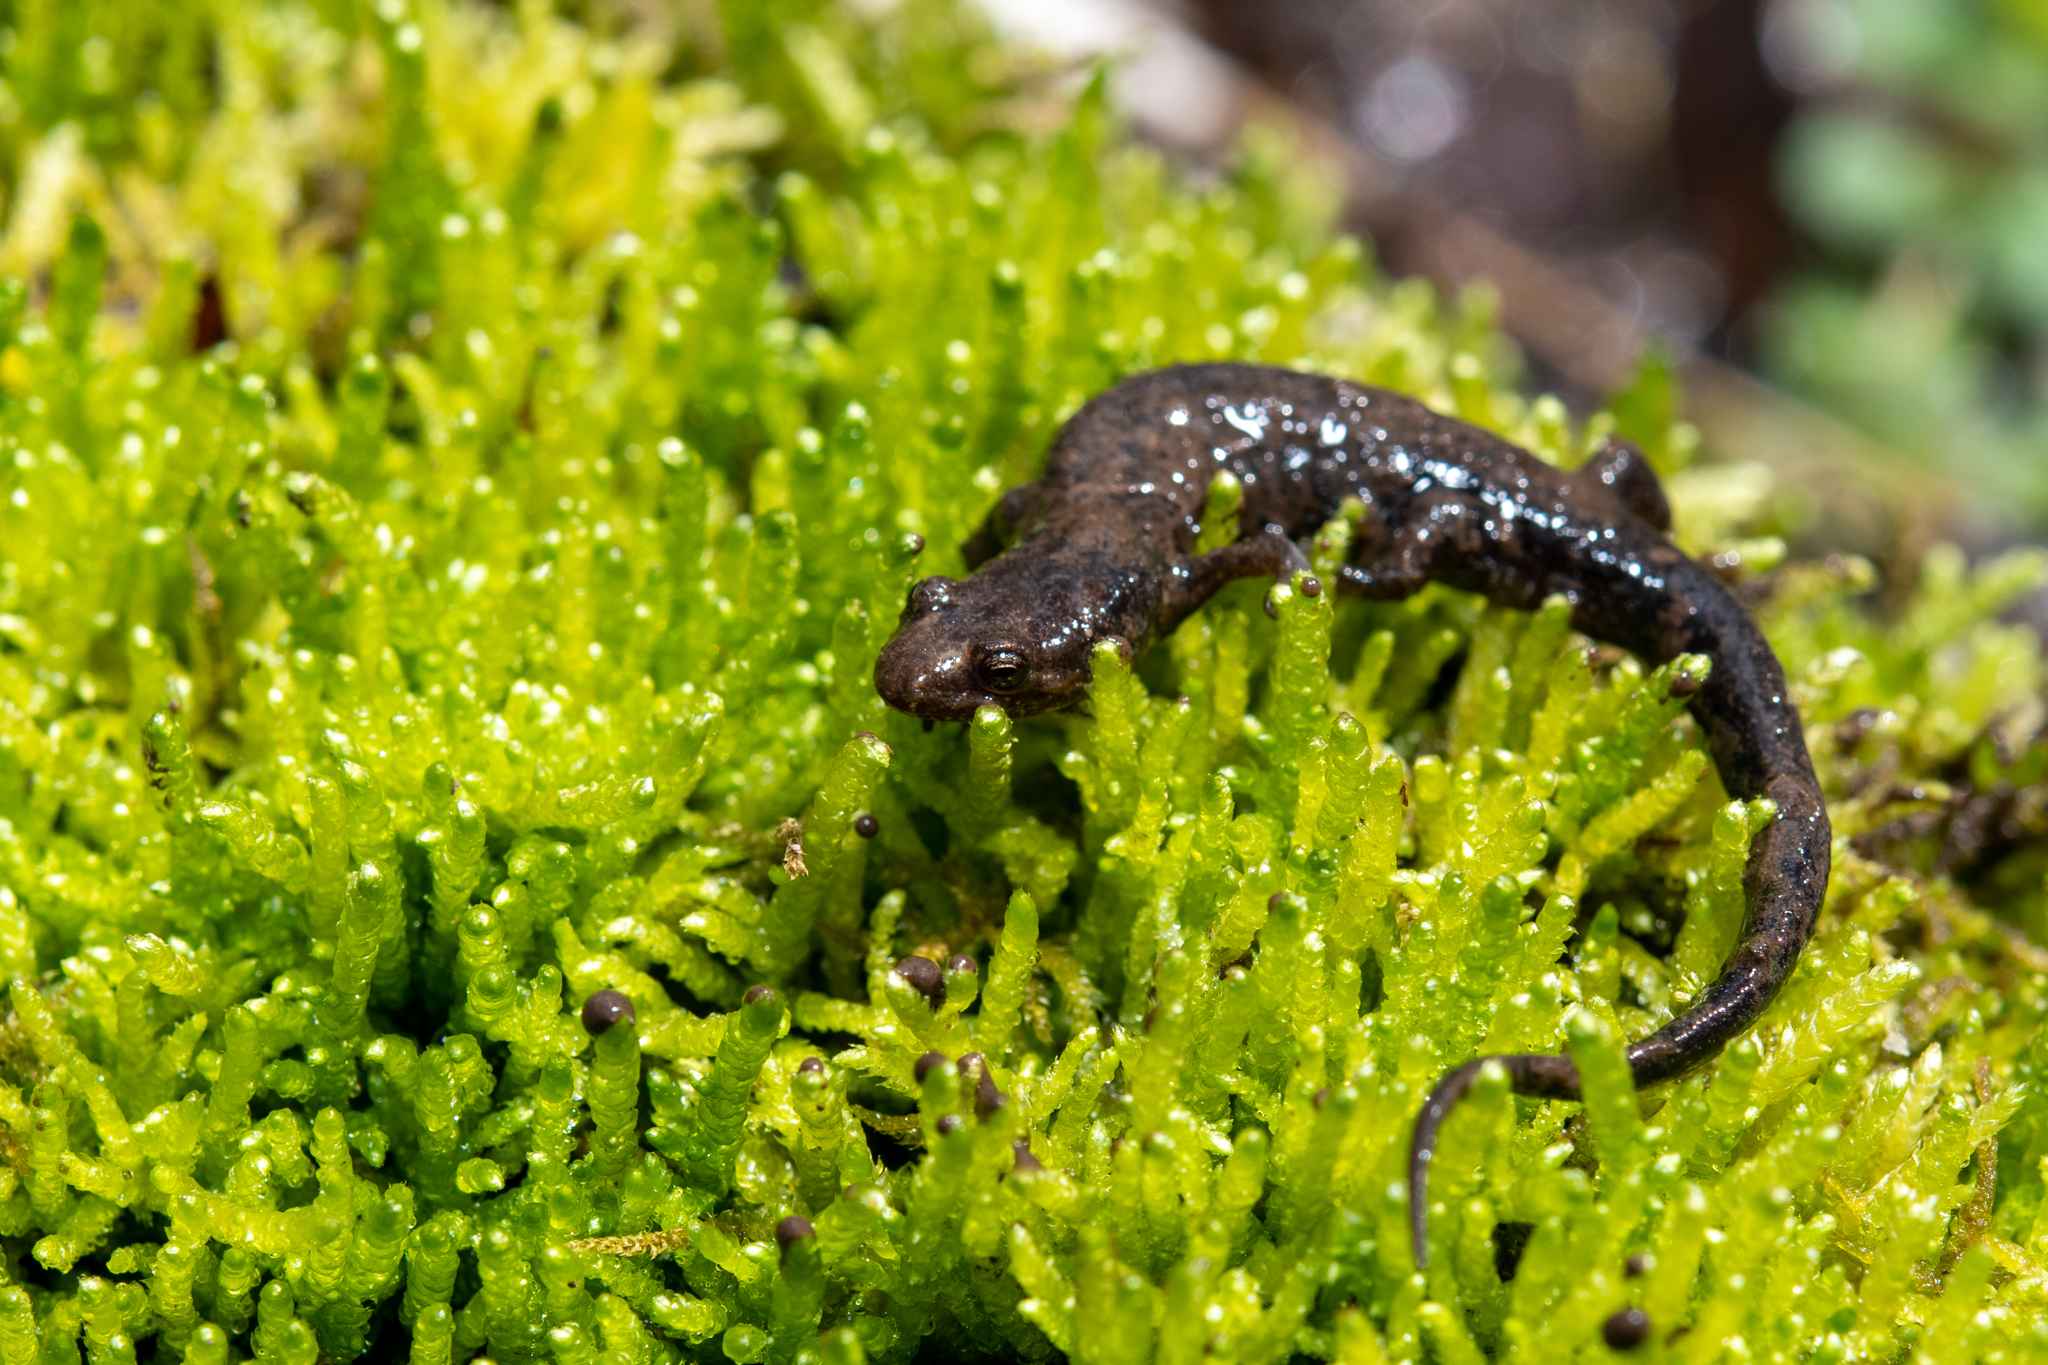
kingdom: Animalia
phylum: Chordata
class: Amphibia
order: Caudata
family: Plethodontidae
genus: Desmognathus
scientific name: Desmognathus ochrophaeus
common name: Allegheny mountain dusky salamander
